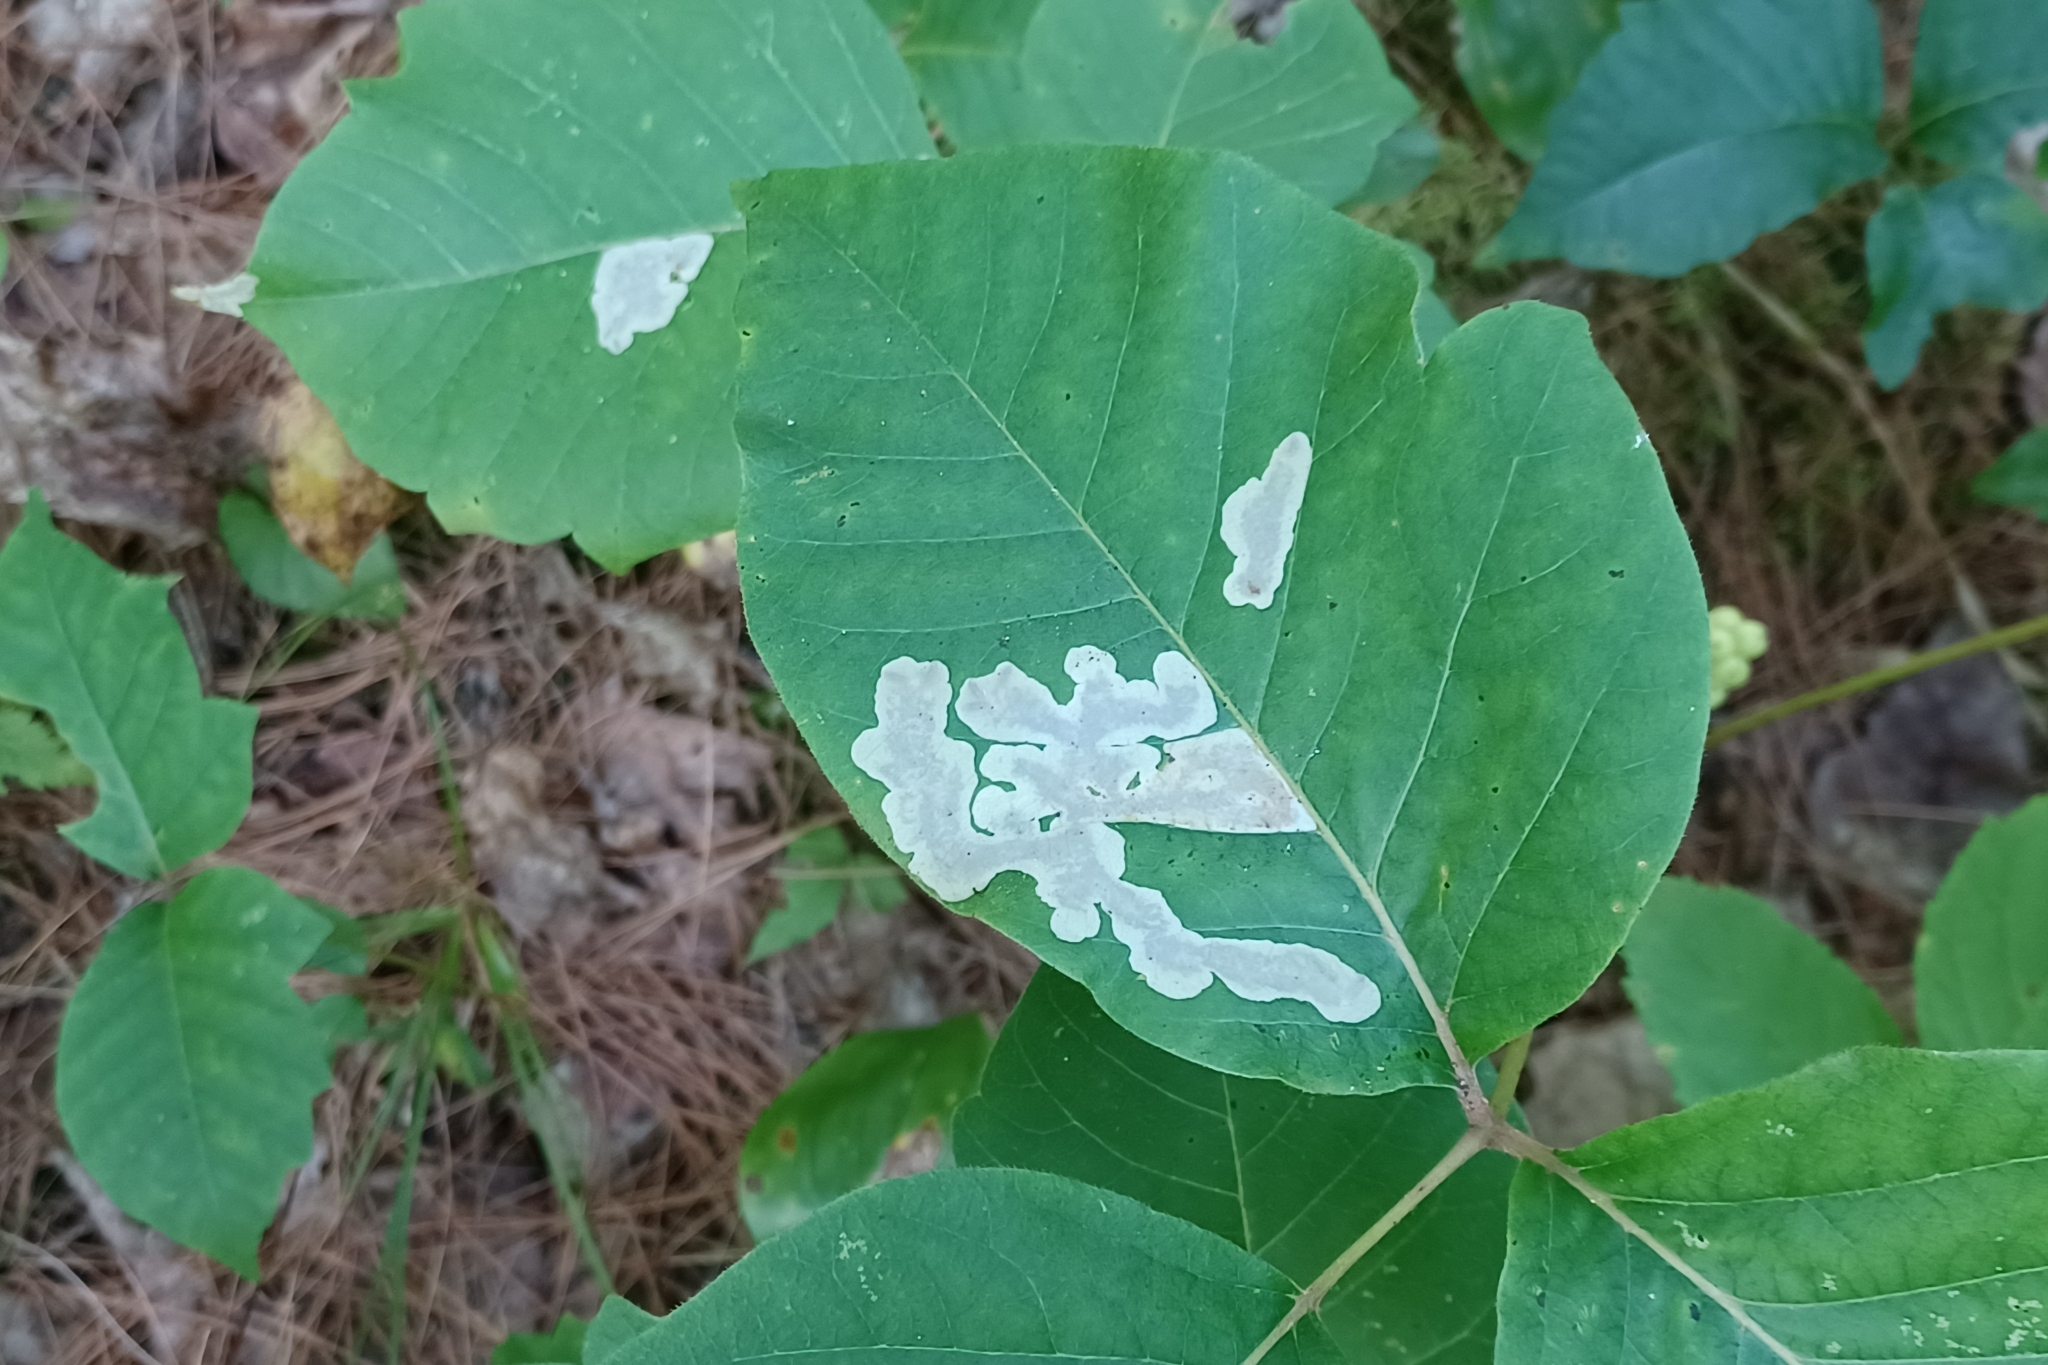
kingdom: Animalia
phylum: Arthropoda
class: Insecta
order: Lepidoptera
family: Gracillariidae
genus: Cameraria
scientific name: Cameraria guttifinitella
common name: Poison ivy leaf-miner moth
